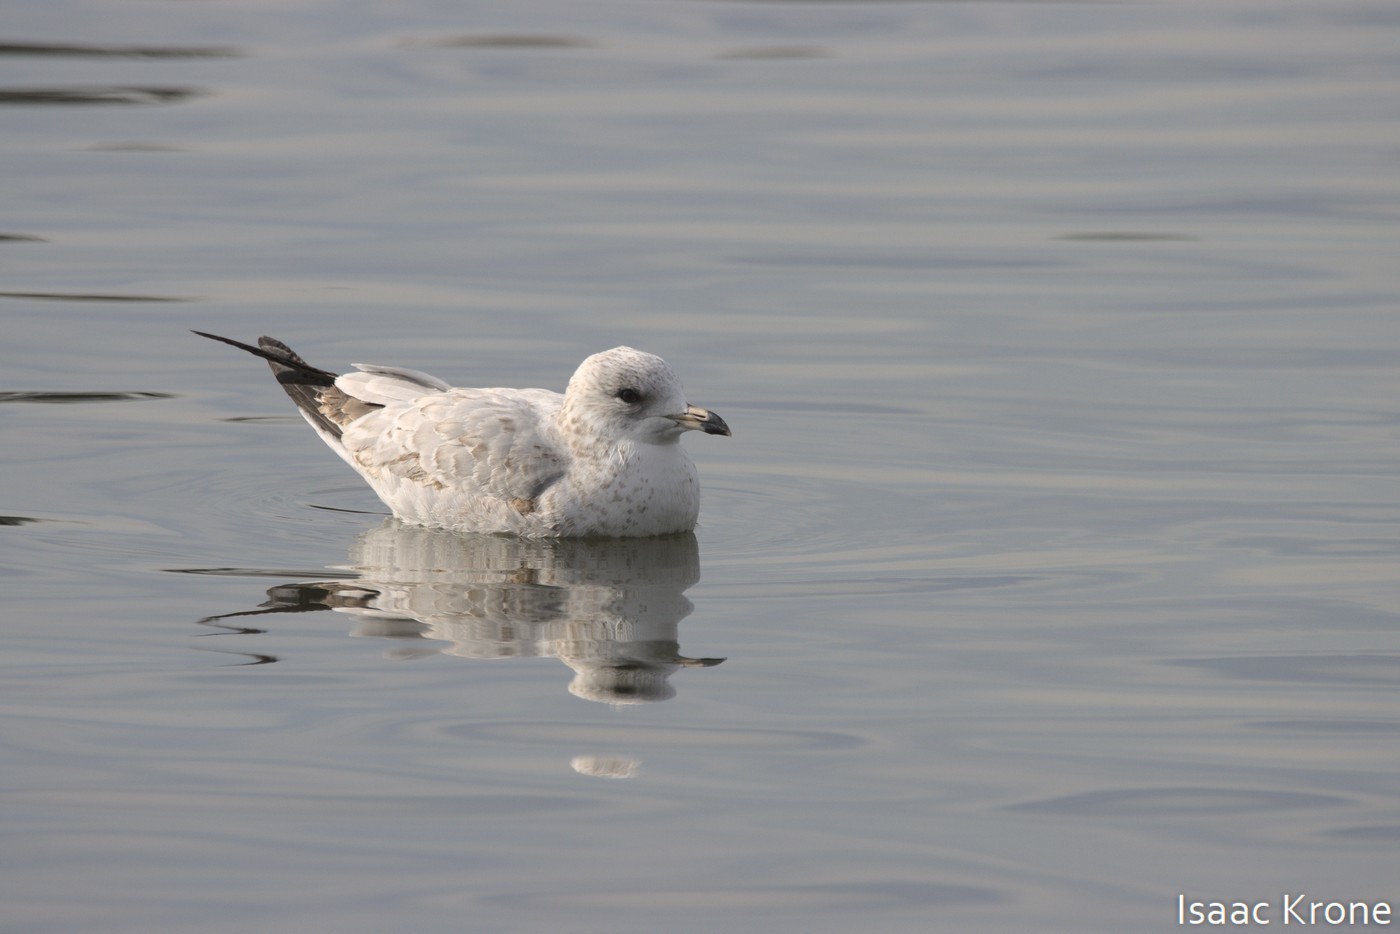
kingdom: Animalia
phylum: Chordata
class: Aves
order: Charadriiformes
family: Laridae
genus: Larus
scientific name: Larus brachyrhynchus
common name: Short-billed gull
